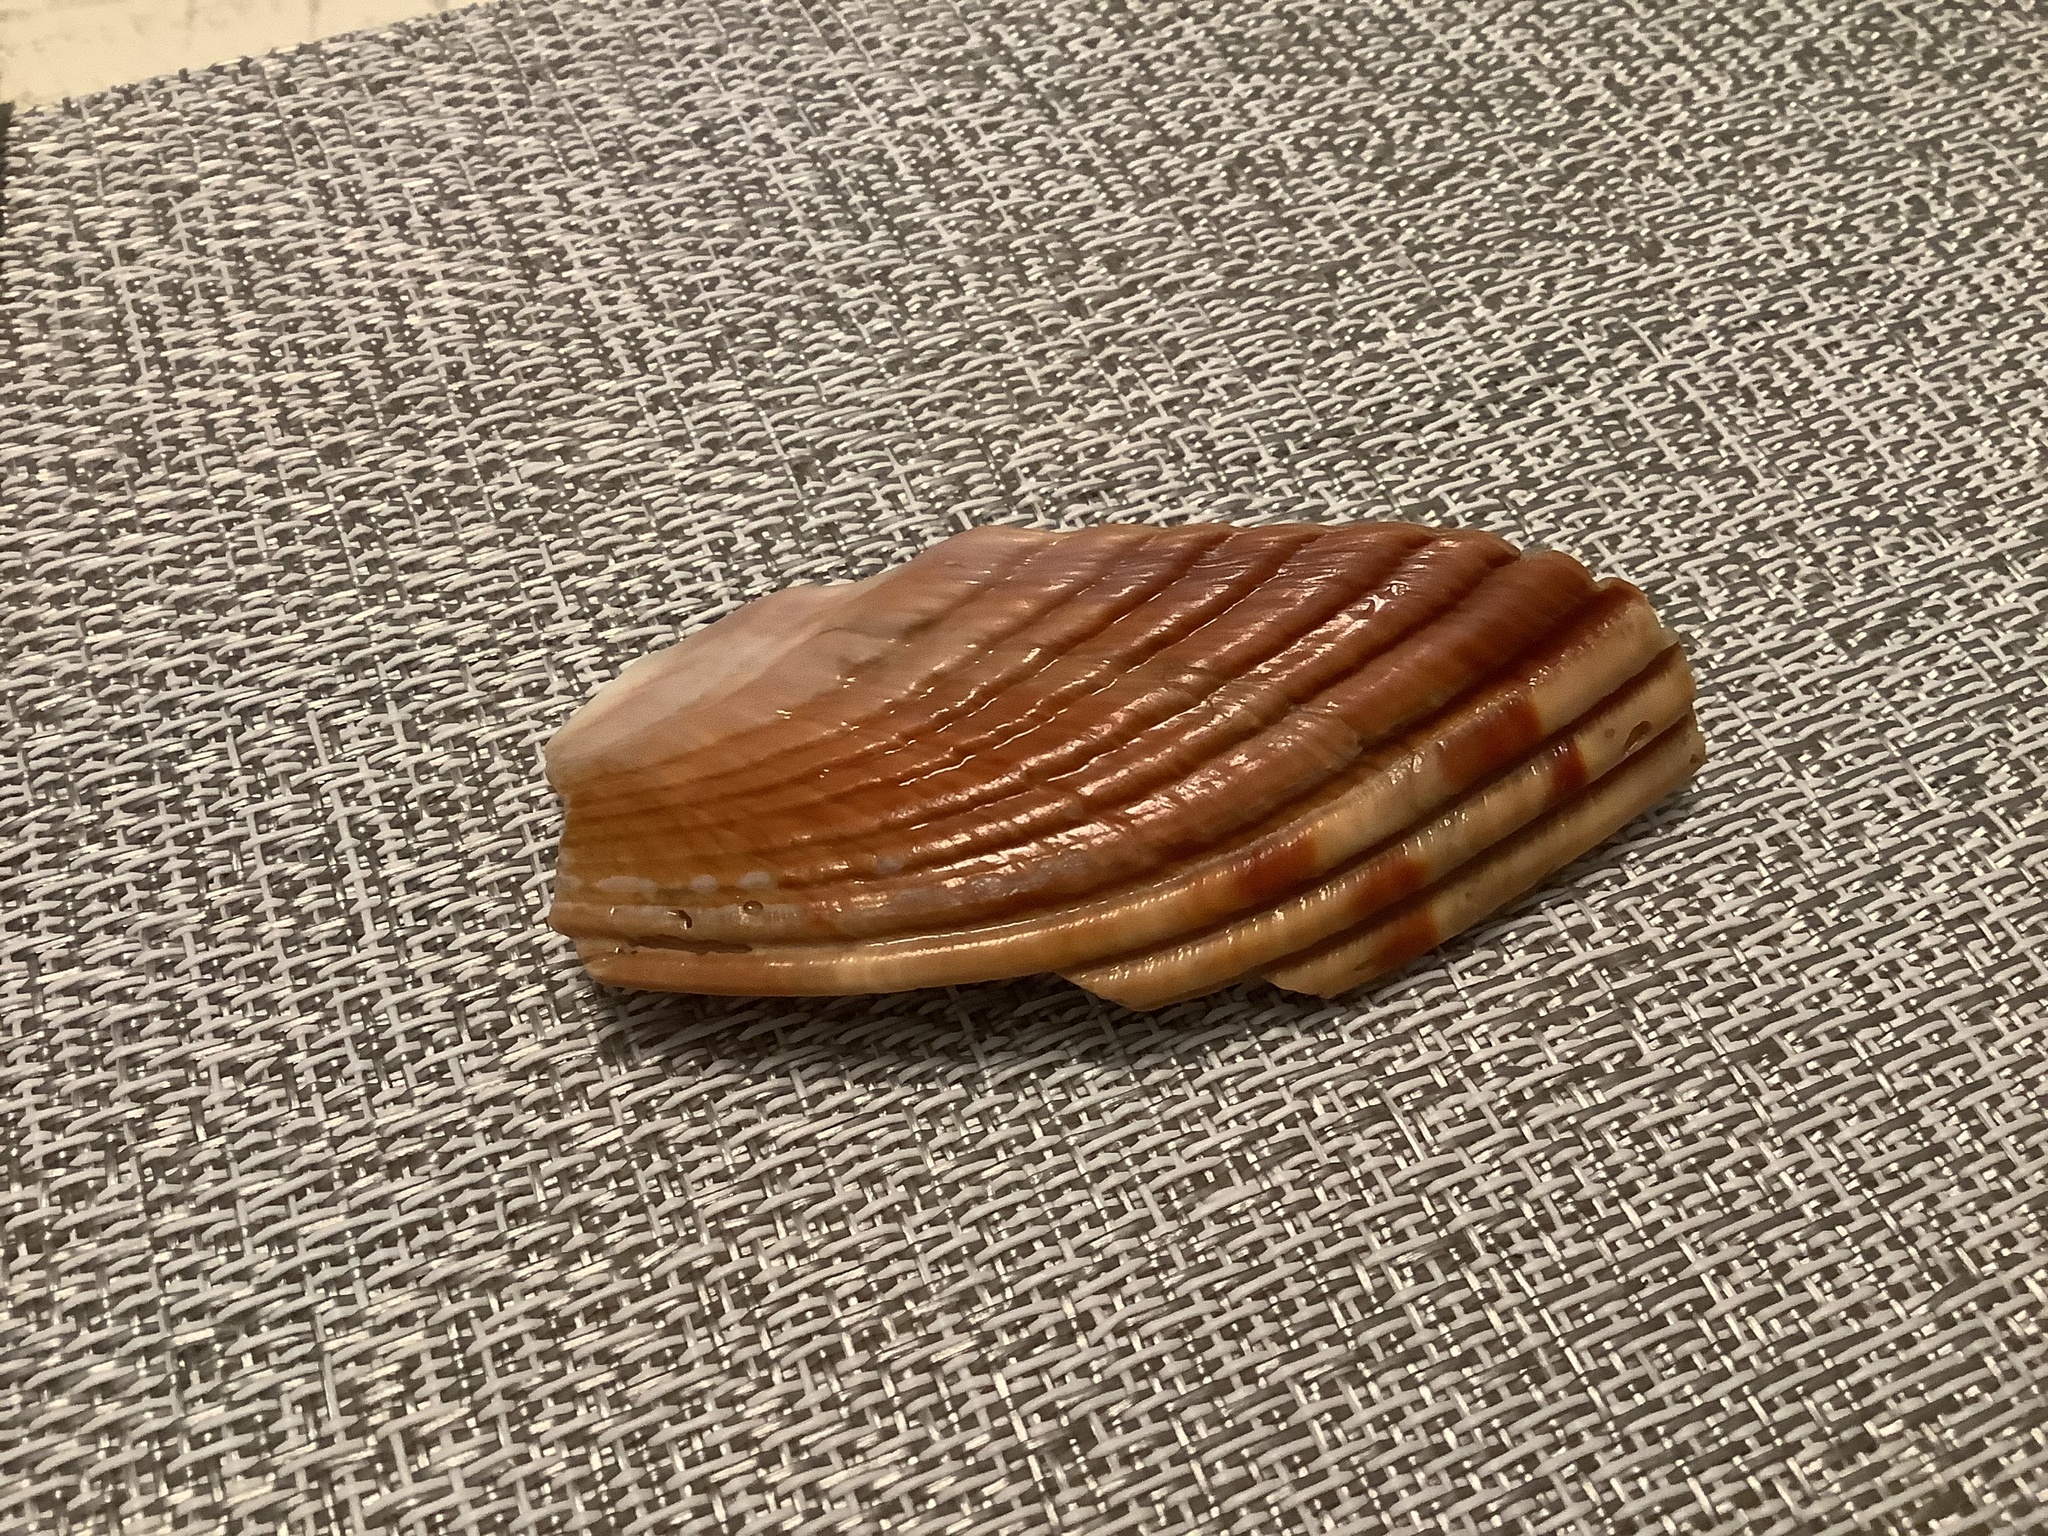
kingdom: Animalia
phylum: Mollusca
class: Bivalvia
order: Cardiida
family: Cardiidae
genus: Dinocardium
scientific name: Dinocardium robustum
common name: Atlantic giant cockle
